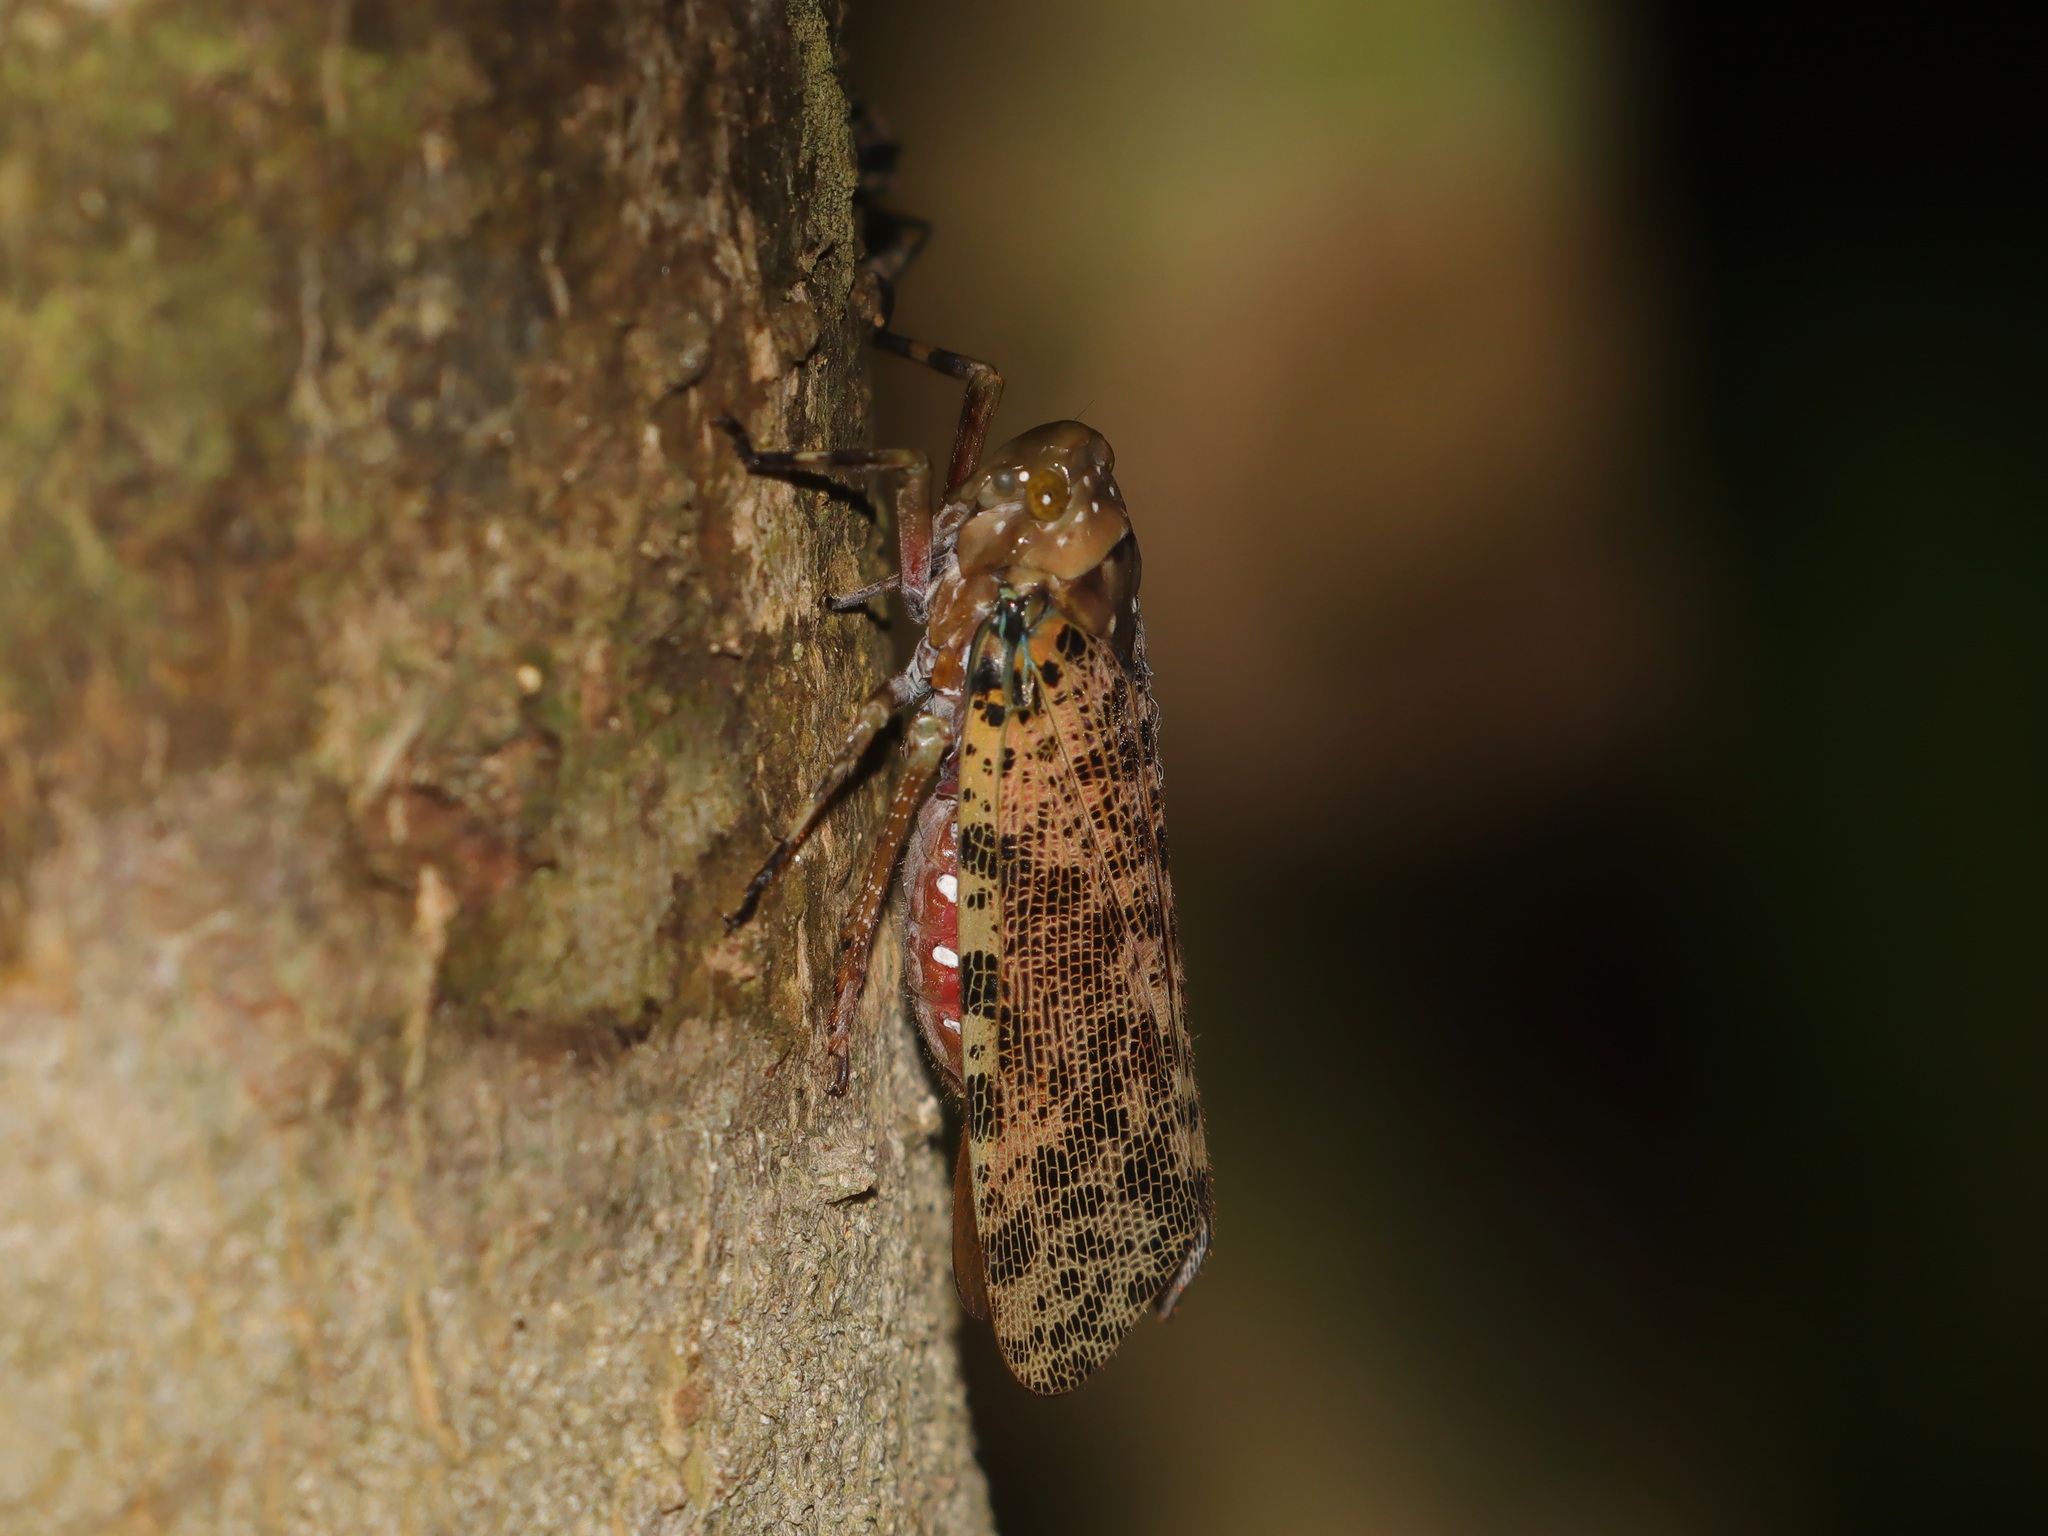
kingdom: Animalia
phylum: Arthropoda
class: Insecta
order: Hemiptera
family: Fulgoridae
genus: Polydictya
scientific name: Polydictya thompsoni
